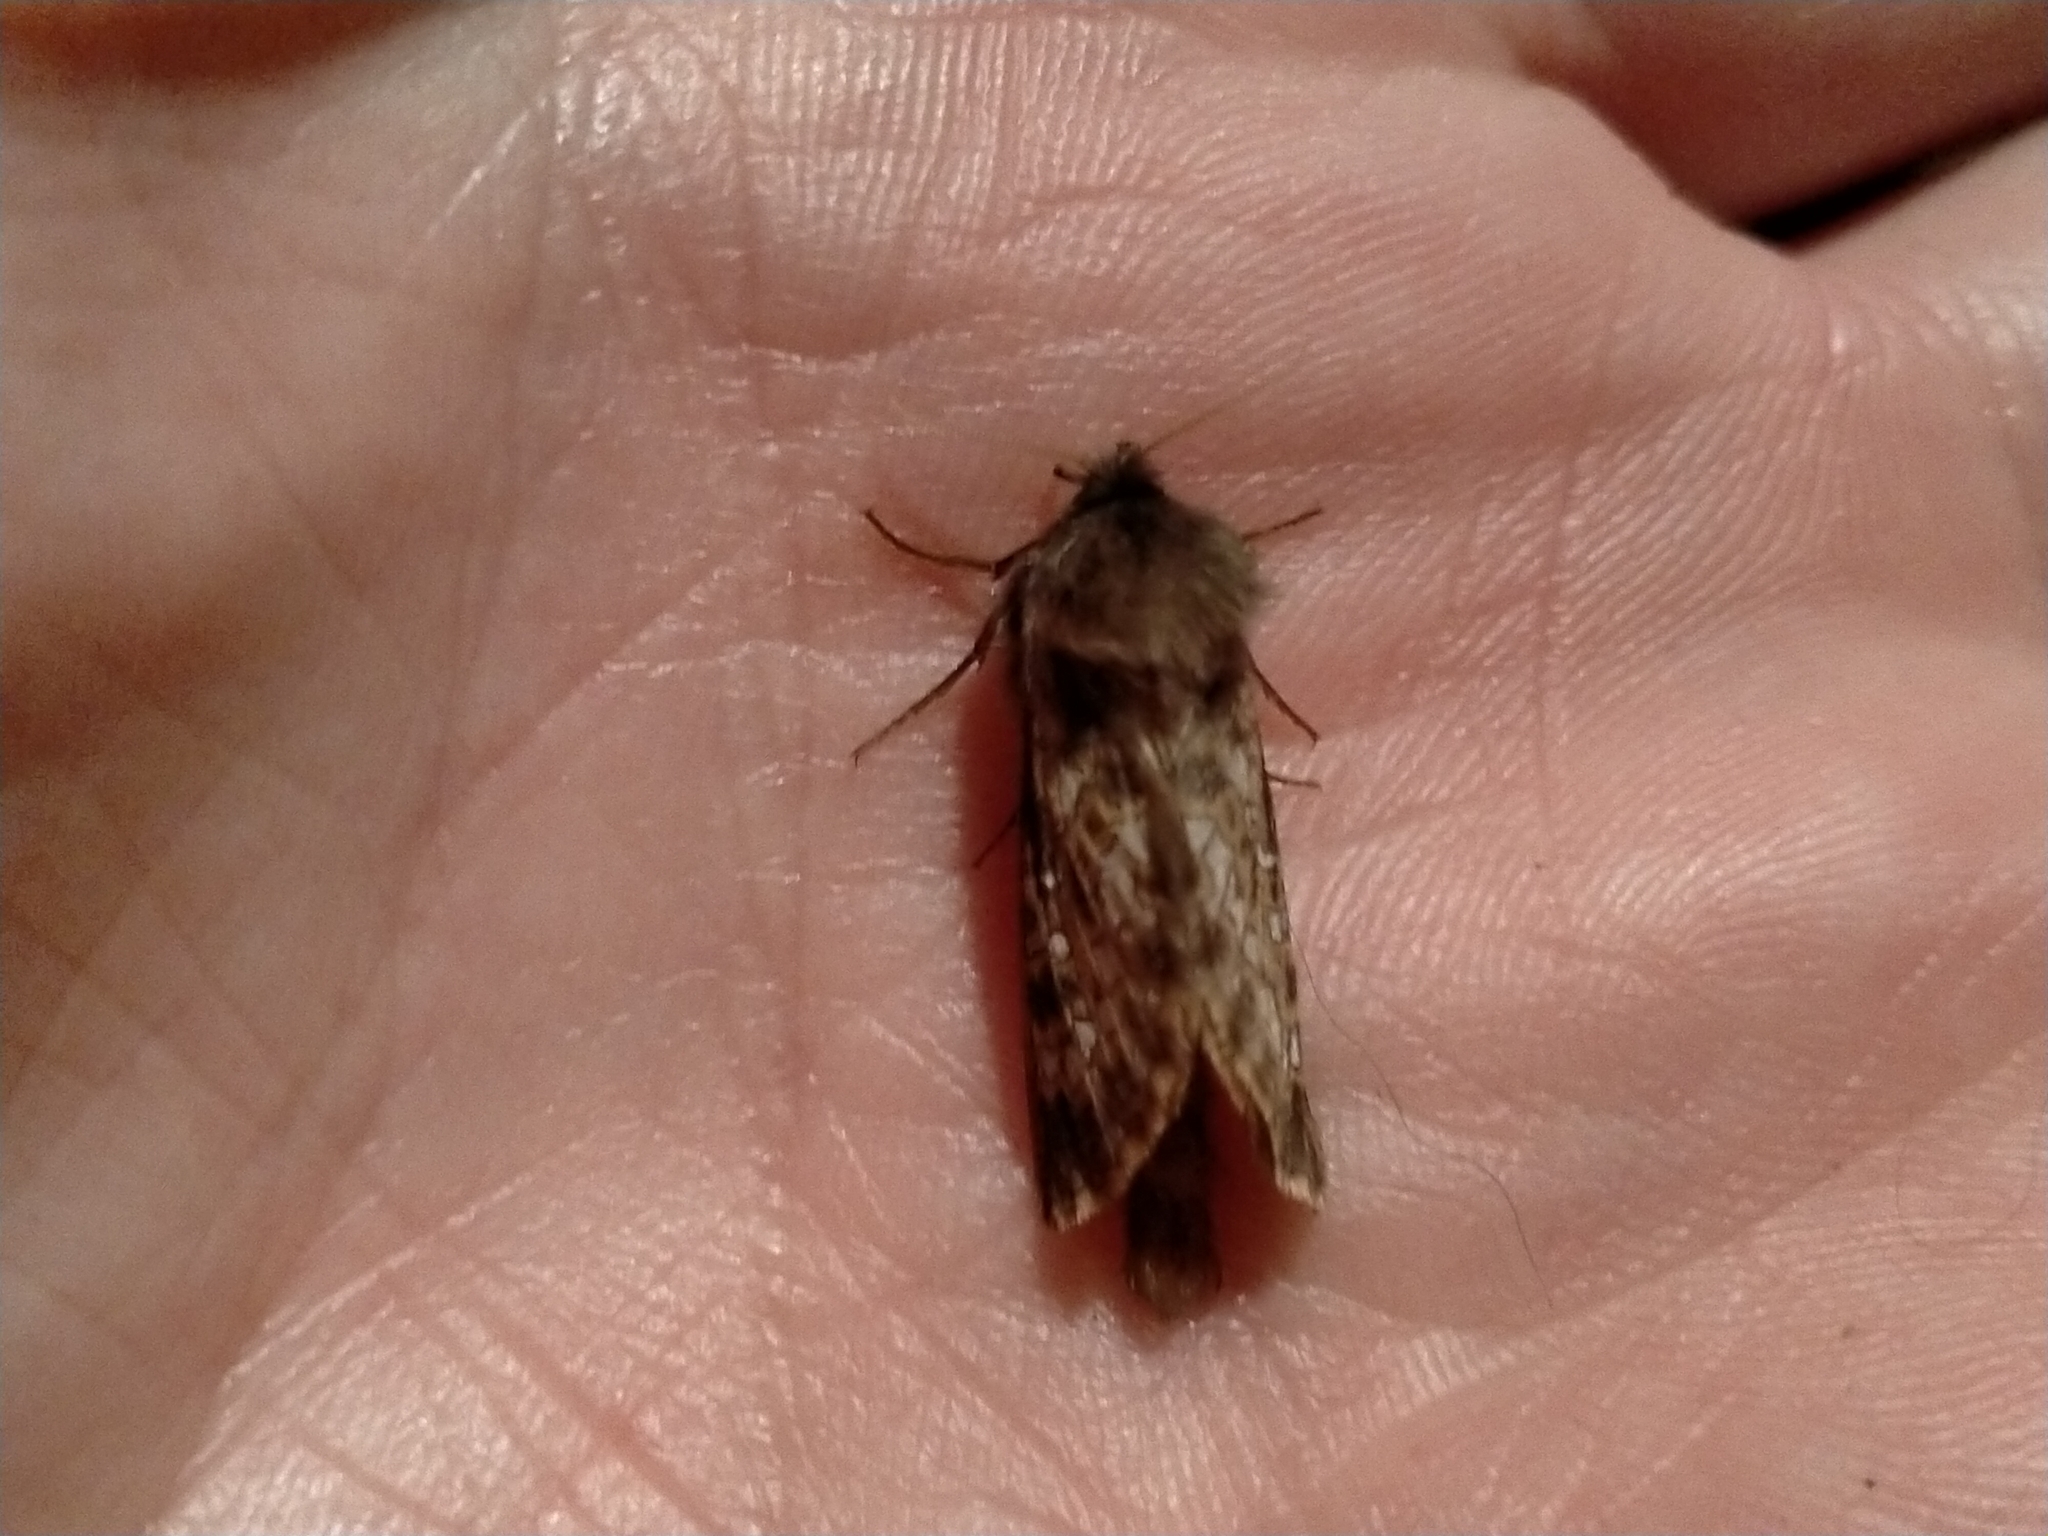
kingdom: Animalia
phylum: Arthropoda
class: Insecta
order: Lepidoptera
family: Hepialidae
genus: Cladoxycanus
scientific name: Cladoxycanus minos
